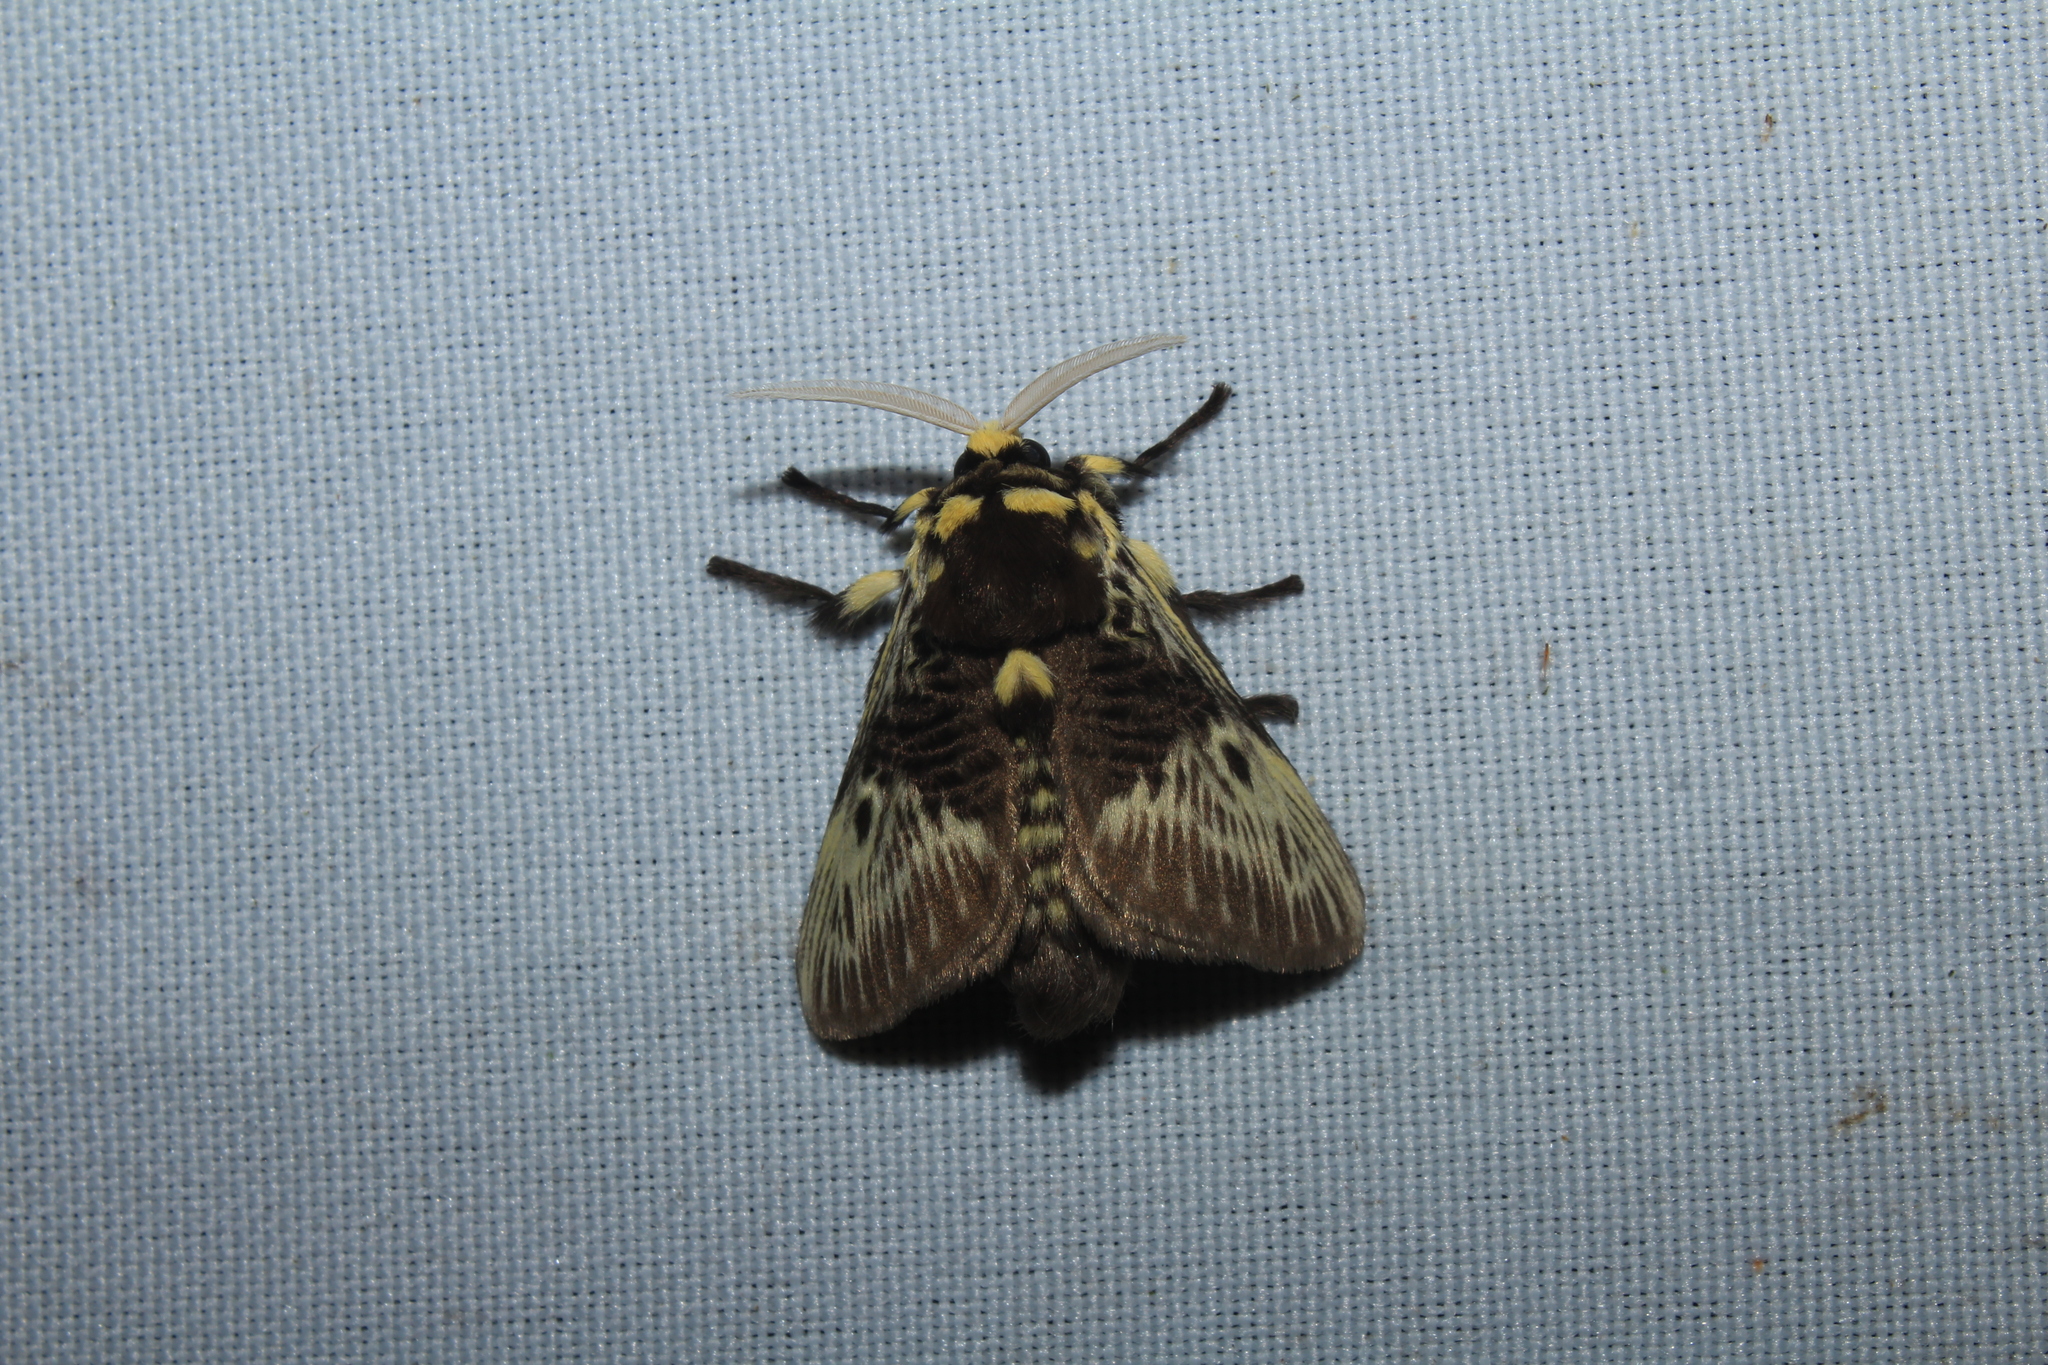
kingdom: Animalia
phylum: Arthropoda
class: Insecta
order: Lepidoptera
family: Megalopygidae
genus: Megalopyge
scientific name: Megalopyge albicollis
